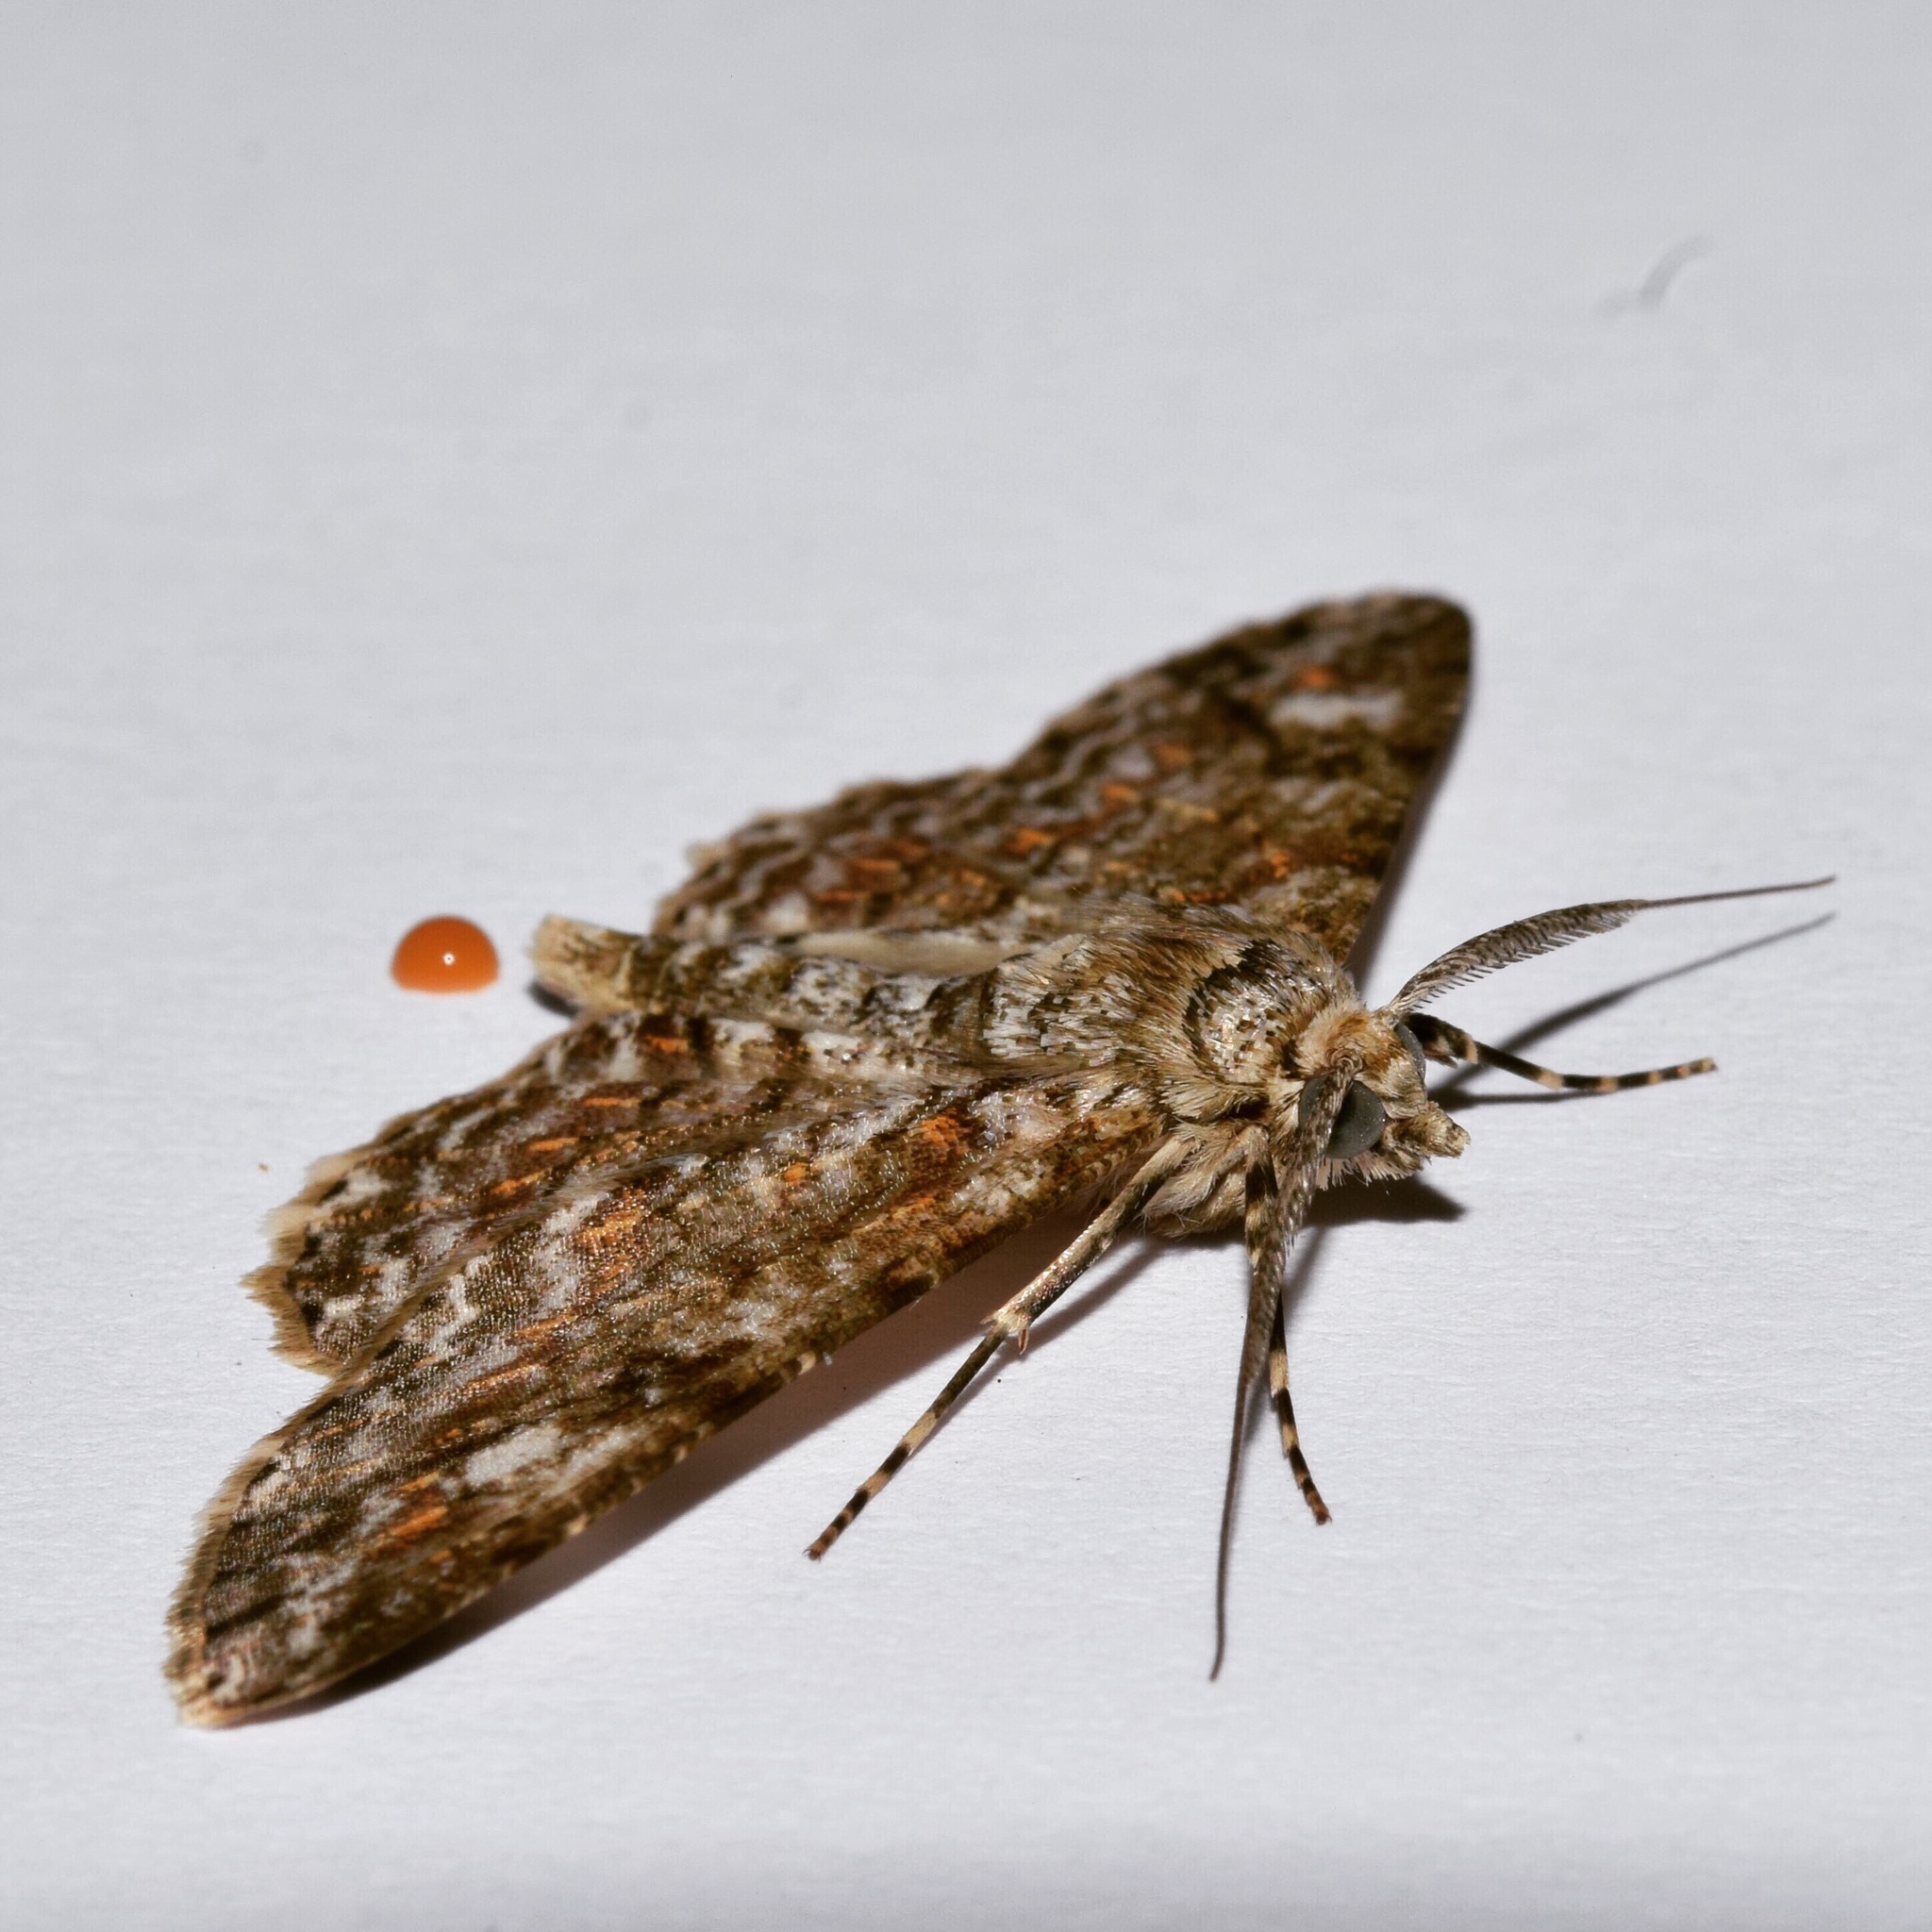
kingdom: Animalia
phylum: Arthropoda
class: Insecta
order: Lepidoptera
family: Geometridae
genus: Cleora
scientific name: Cleora munda
